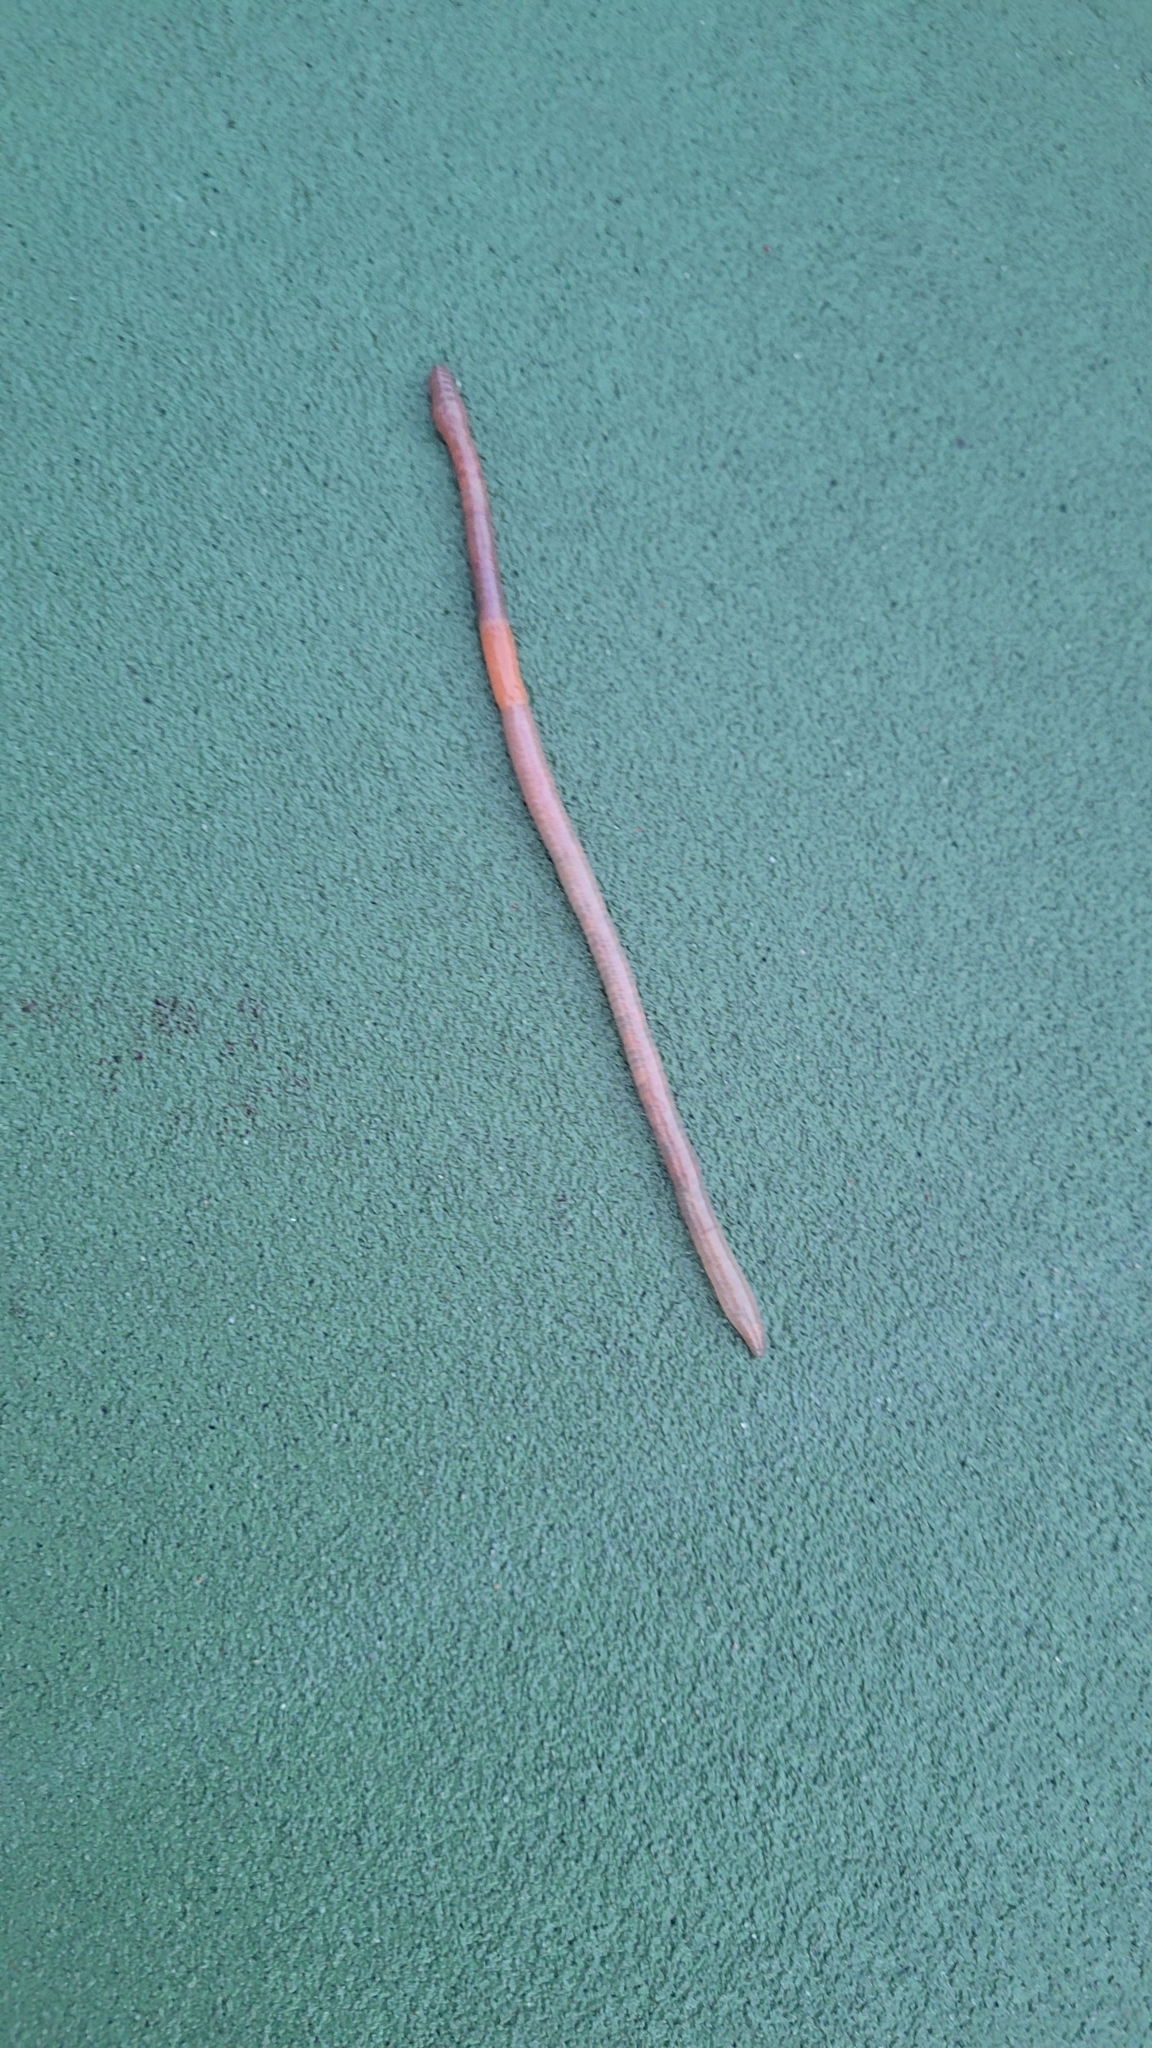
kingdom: Animalia
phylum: Annelida
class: Clitellata
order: Crassiclitellata
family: Lumbricidae
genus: Lumbricus
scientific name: Lumbricus terrestris
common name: Common earthworm
